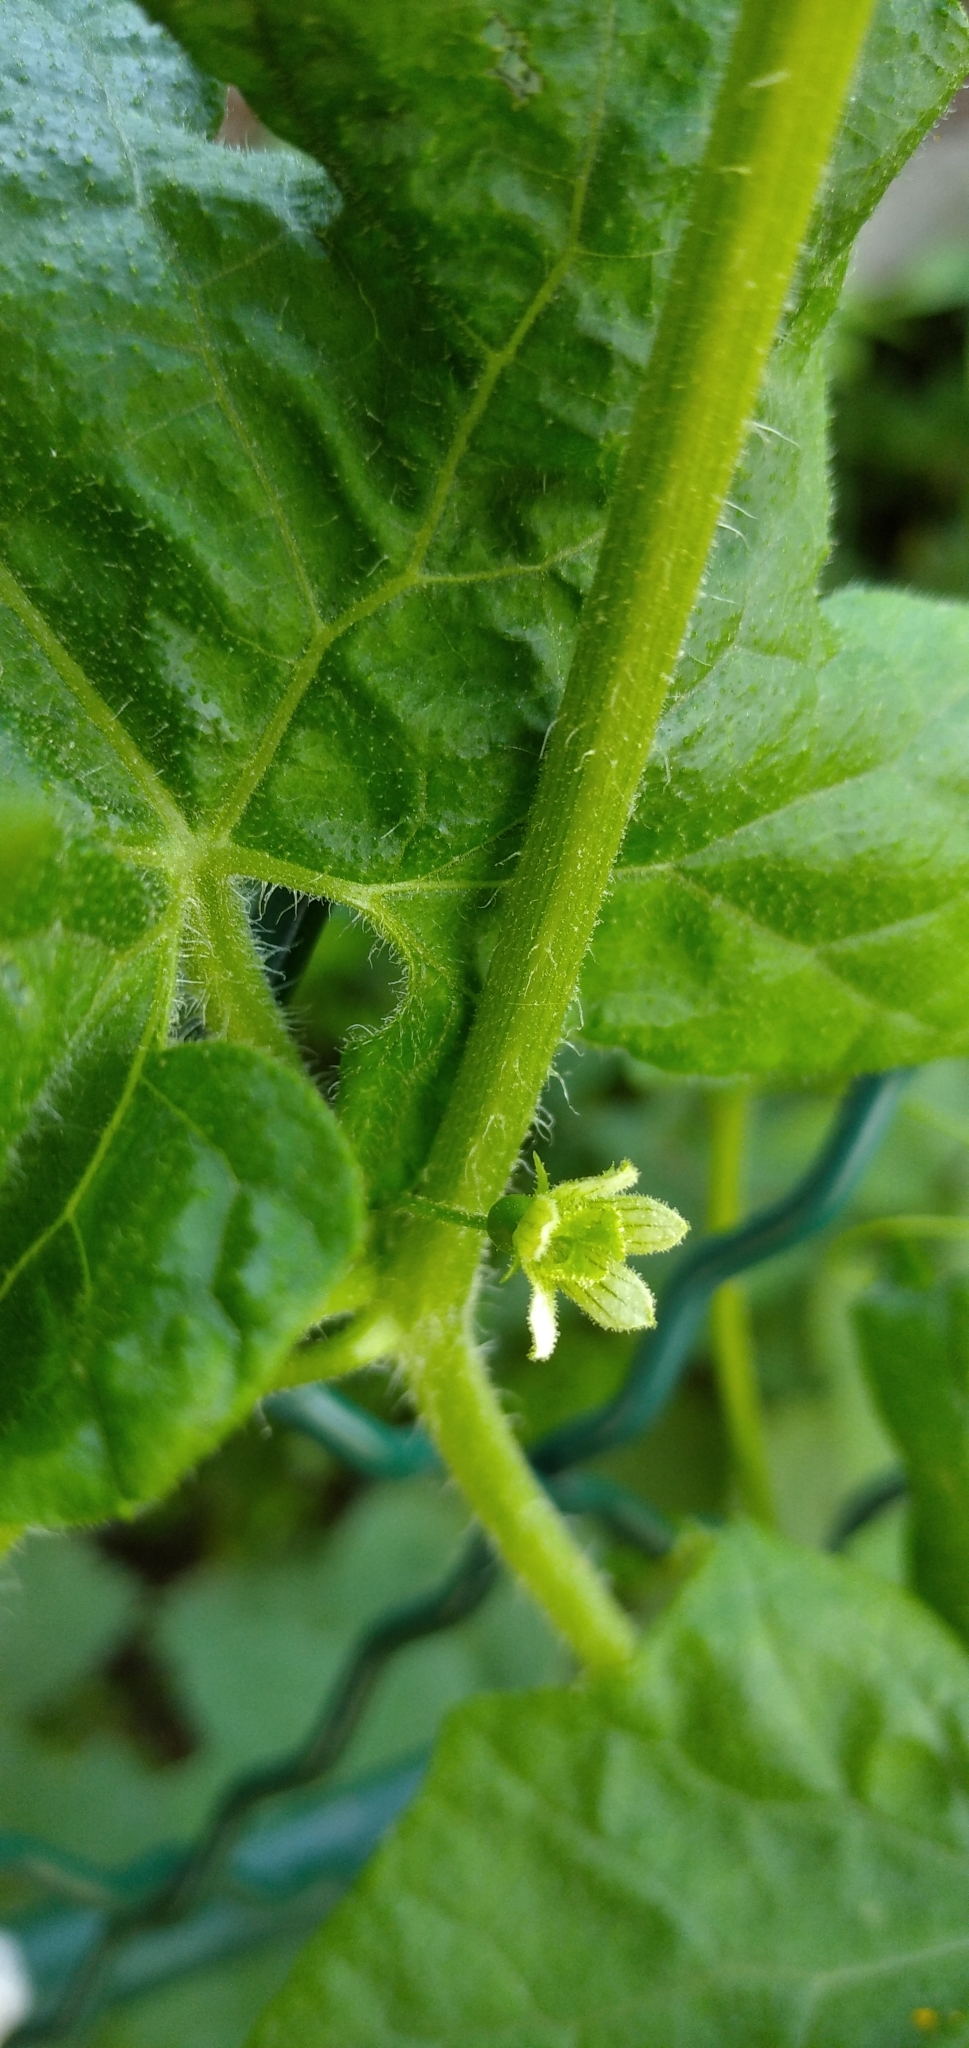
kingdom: Plantae
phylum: Tracheophyta
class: Magnoliopsida
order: Cucurbitales
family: Cucurbitaceae
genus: Bryonia
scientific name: Bryonia cretica
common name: Cretan bryony
